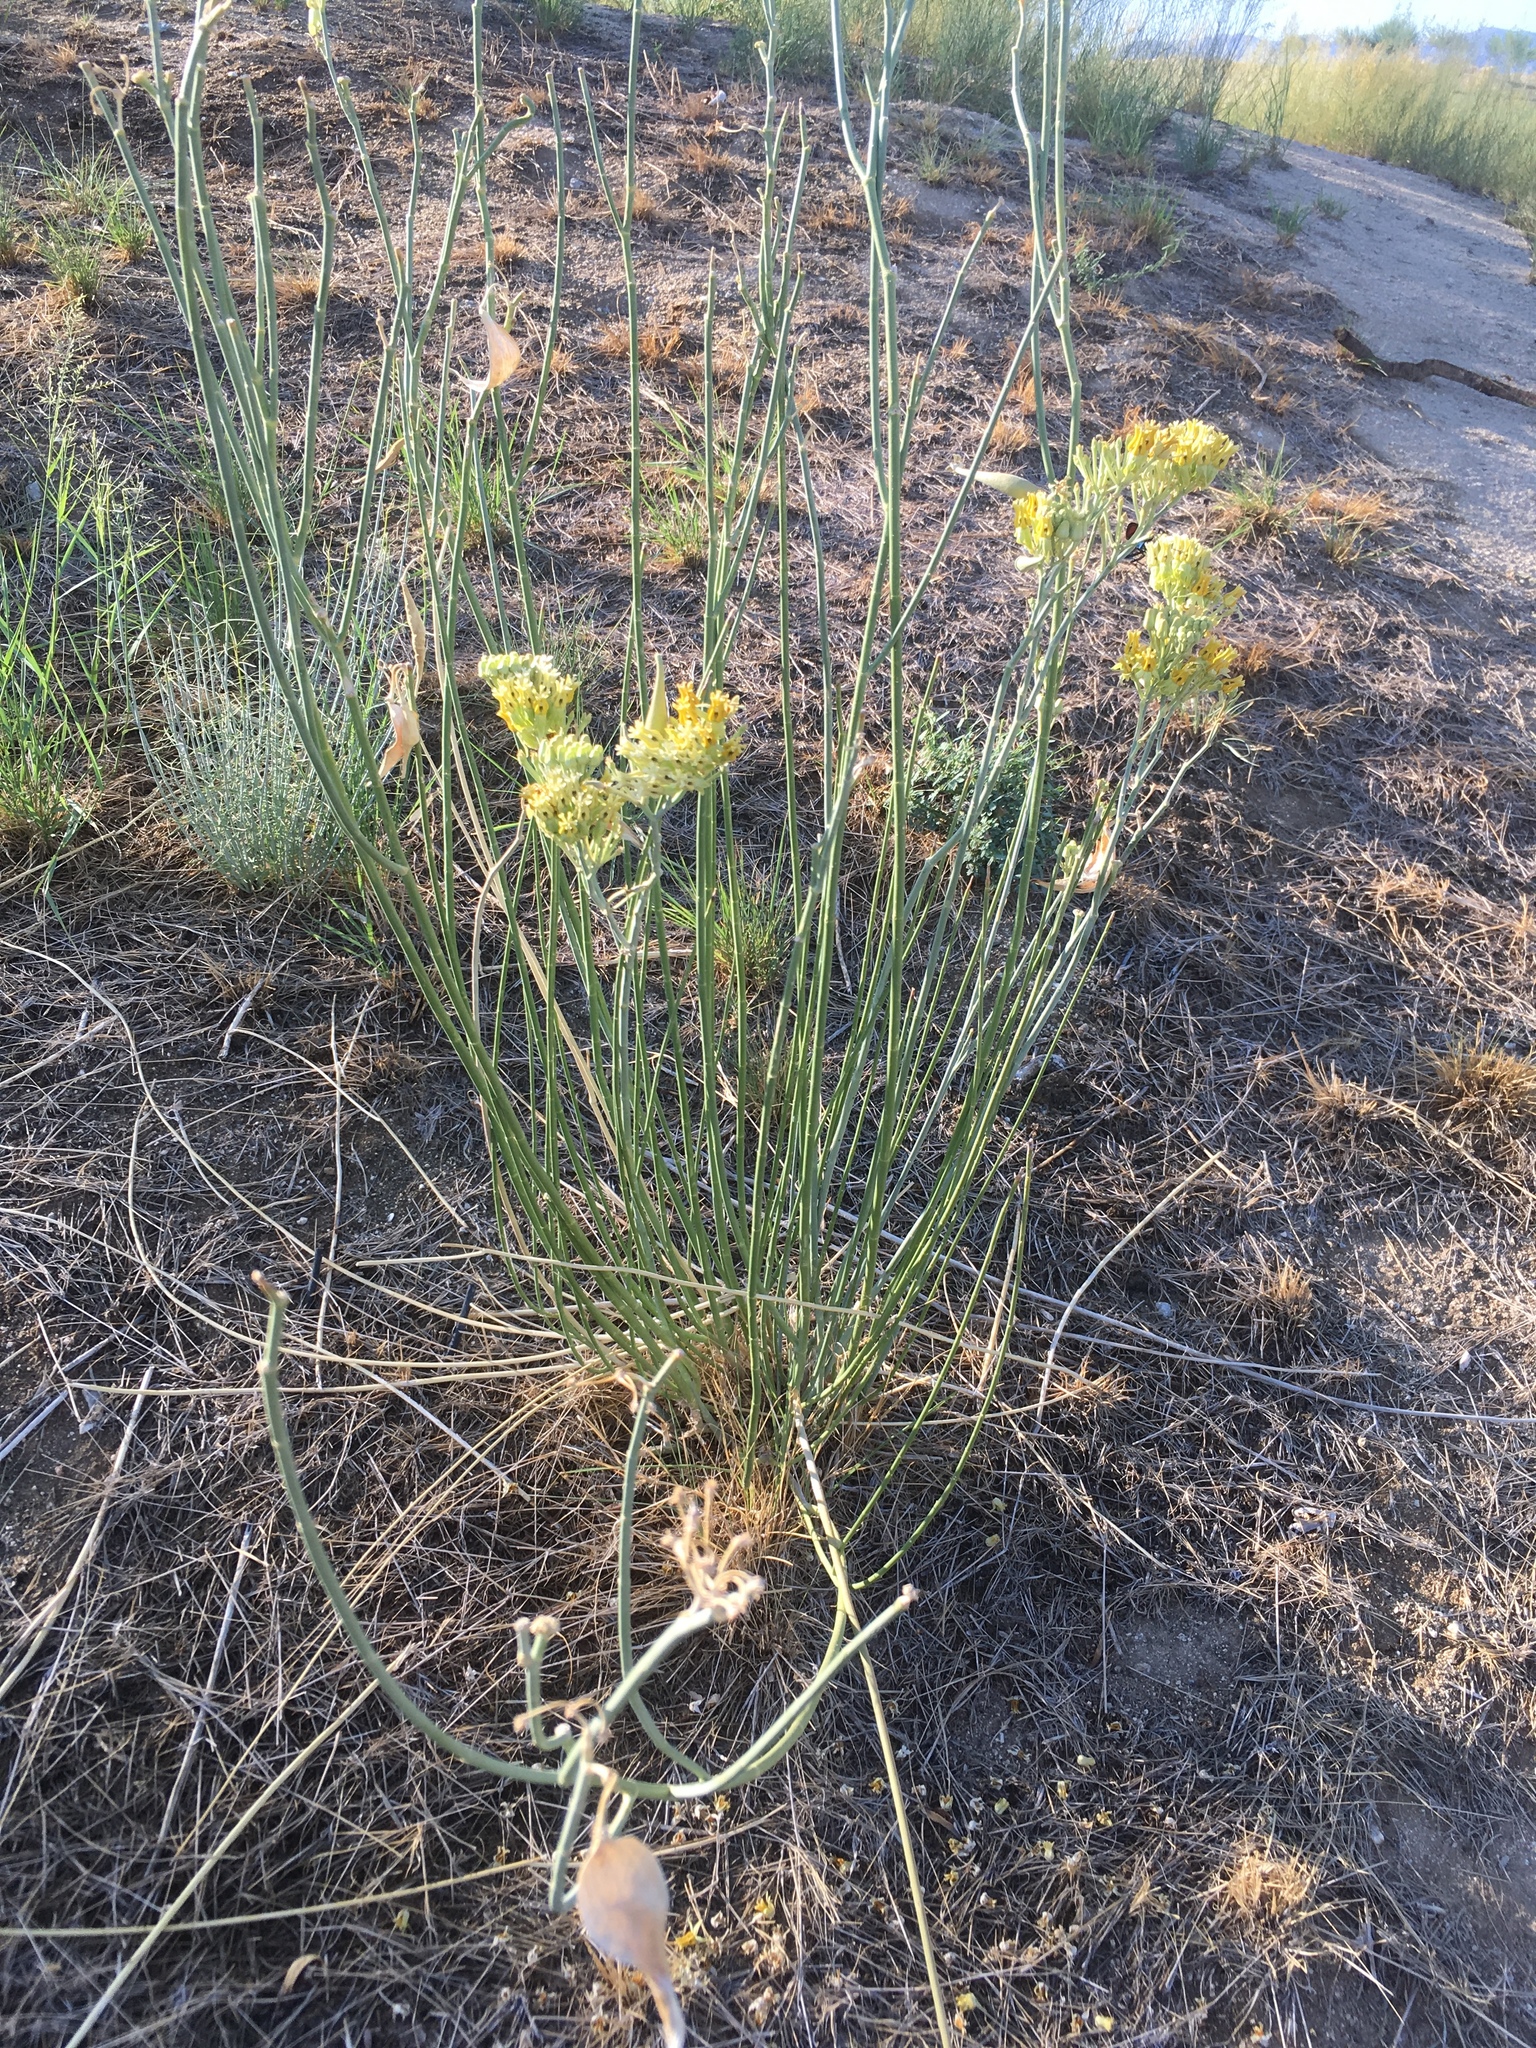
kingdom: Plantae
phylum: Tracheophyta
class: Magnoliopsida
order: Gentianales
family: Apocynaceae
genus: Asclepias
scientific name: Asclepias subulata
